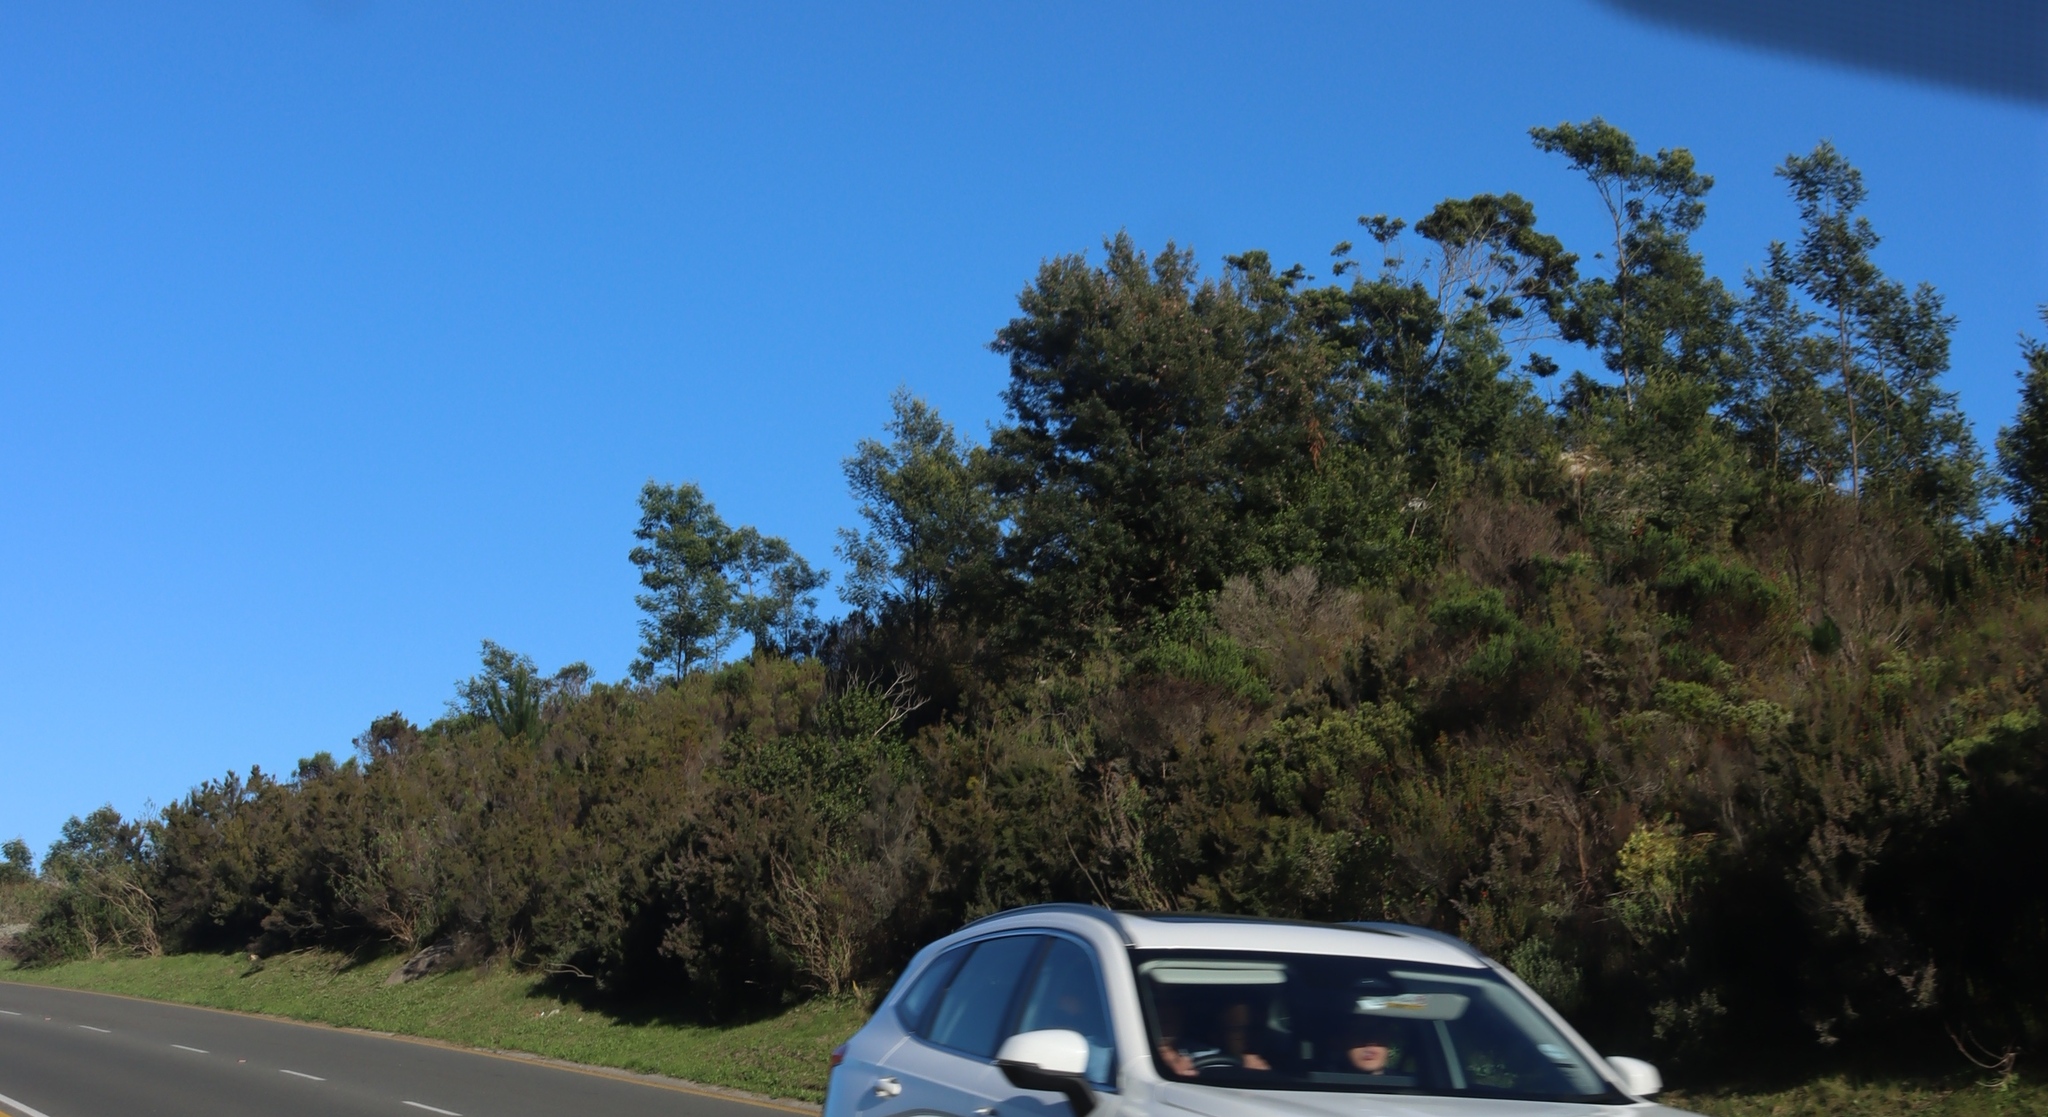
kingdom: Plantae
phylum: Tracheophyta
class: Magnoliopsida
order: Fabales
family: Fabaceae
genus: Acacia
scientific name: Acacia mearnsii
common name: Black wattle
